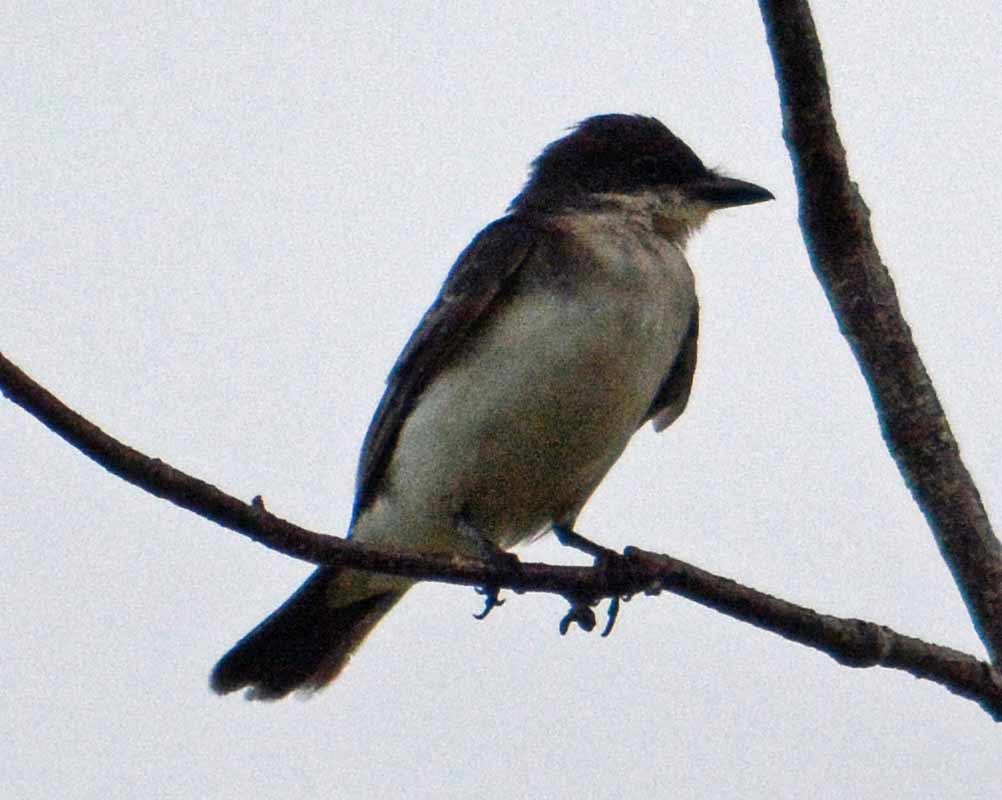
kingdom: Animalia
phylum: Chordata
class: Aves
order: Passeriformes
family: Tyrannidae
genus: Tyrannus
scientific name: Tyrannus tyrannus
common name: Eastern kingbird
